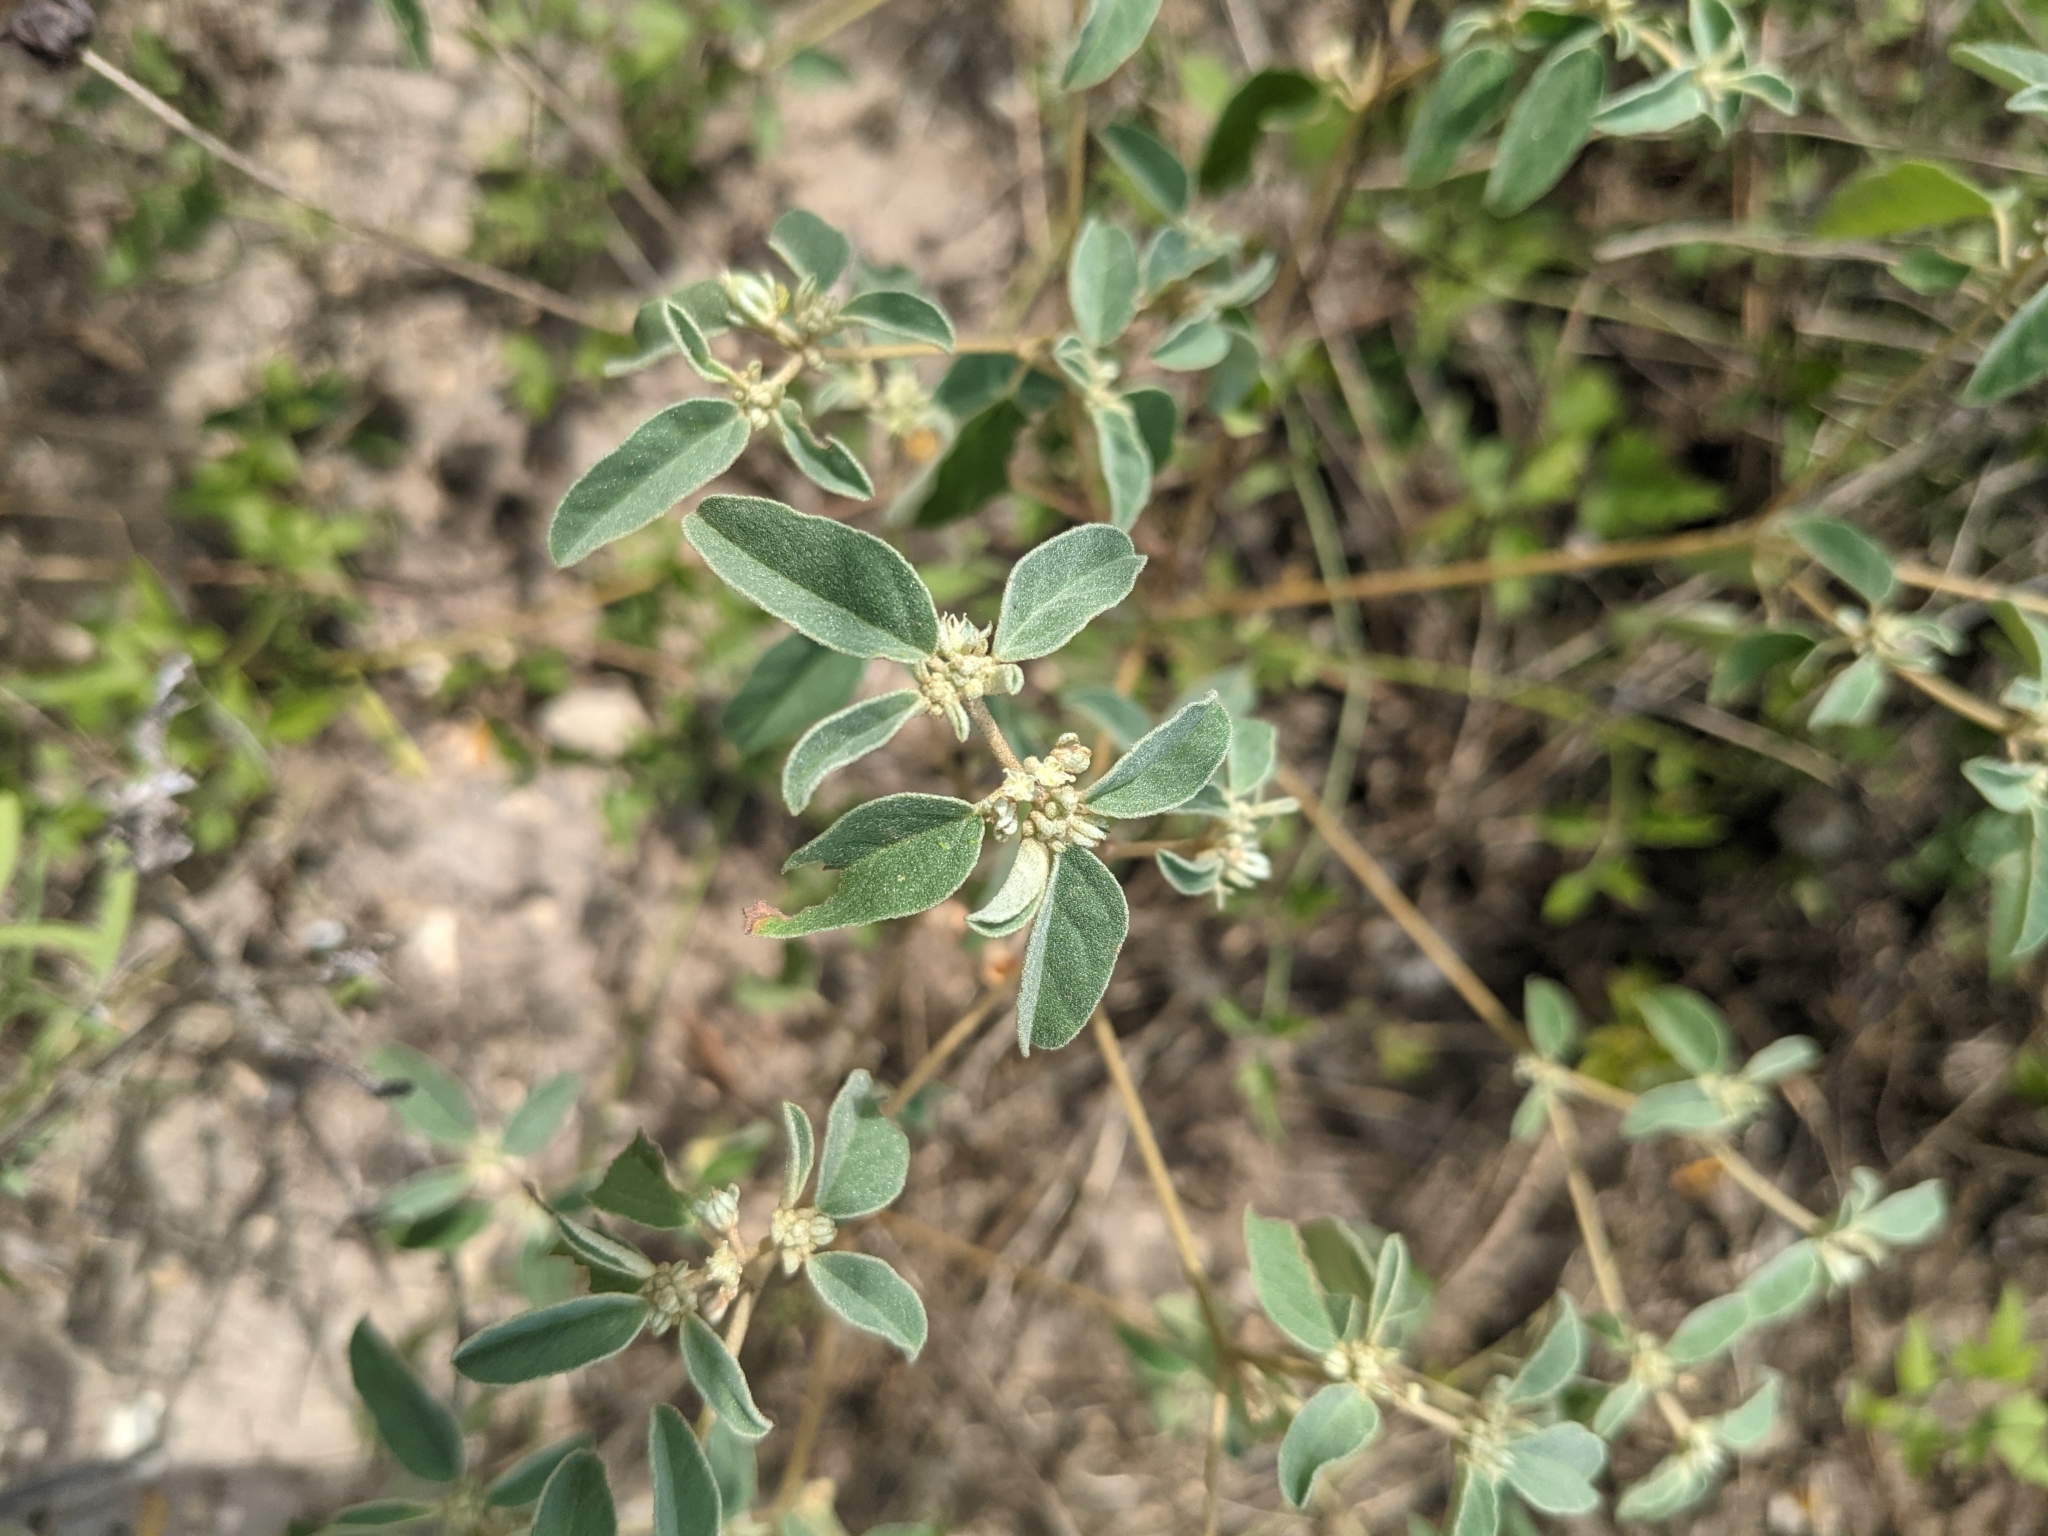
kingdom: Plantae
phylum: Tracheophyta
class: Magnoliopsida
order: Malpighiales
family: Euphorbiaceae
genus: Croton
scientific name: Croton monanthogynus
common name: One-seed croton
